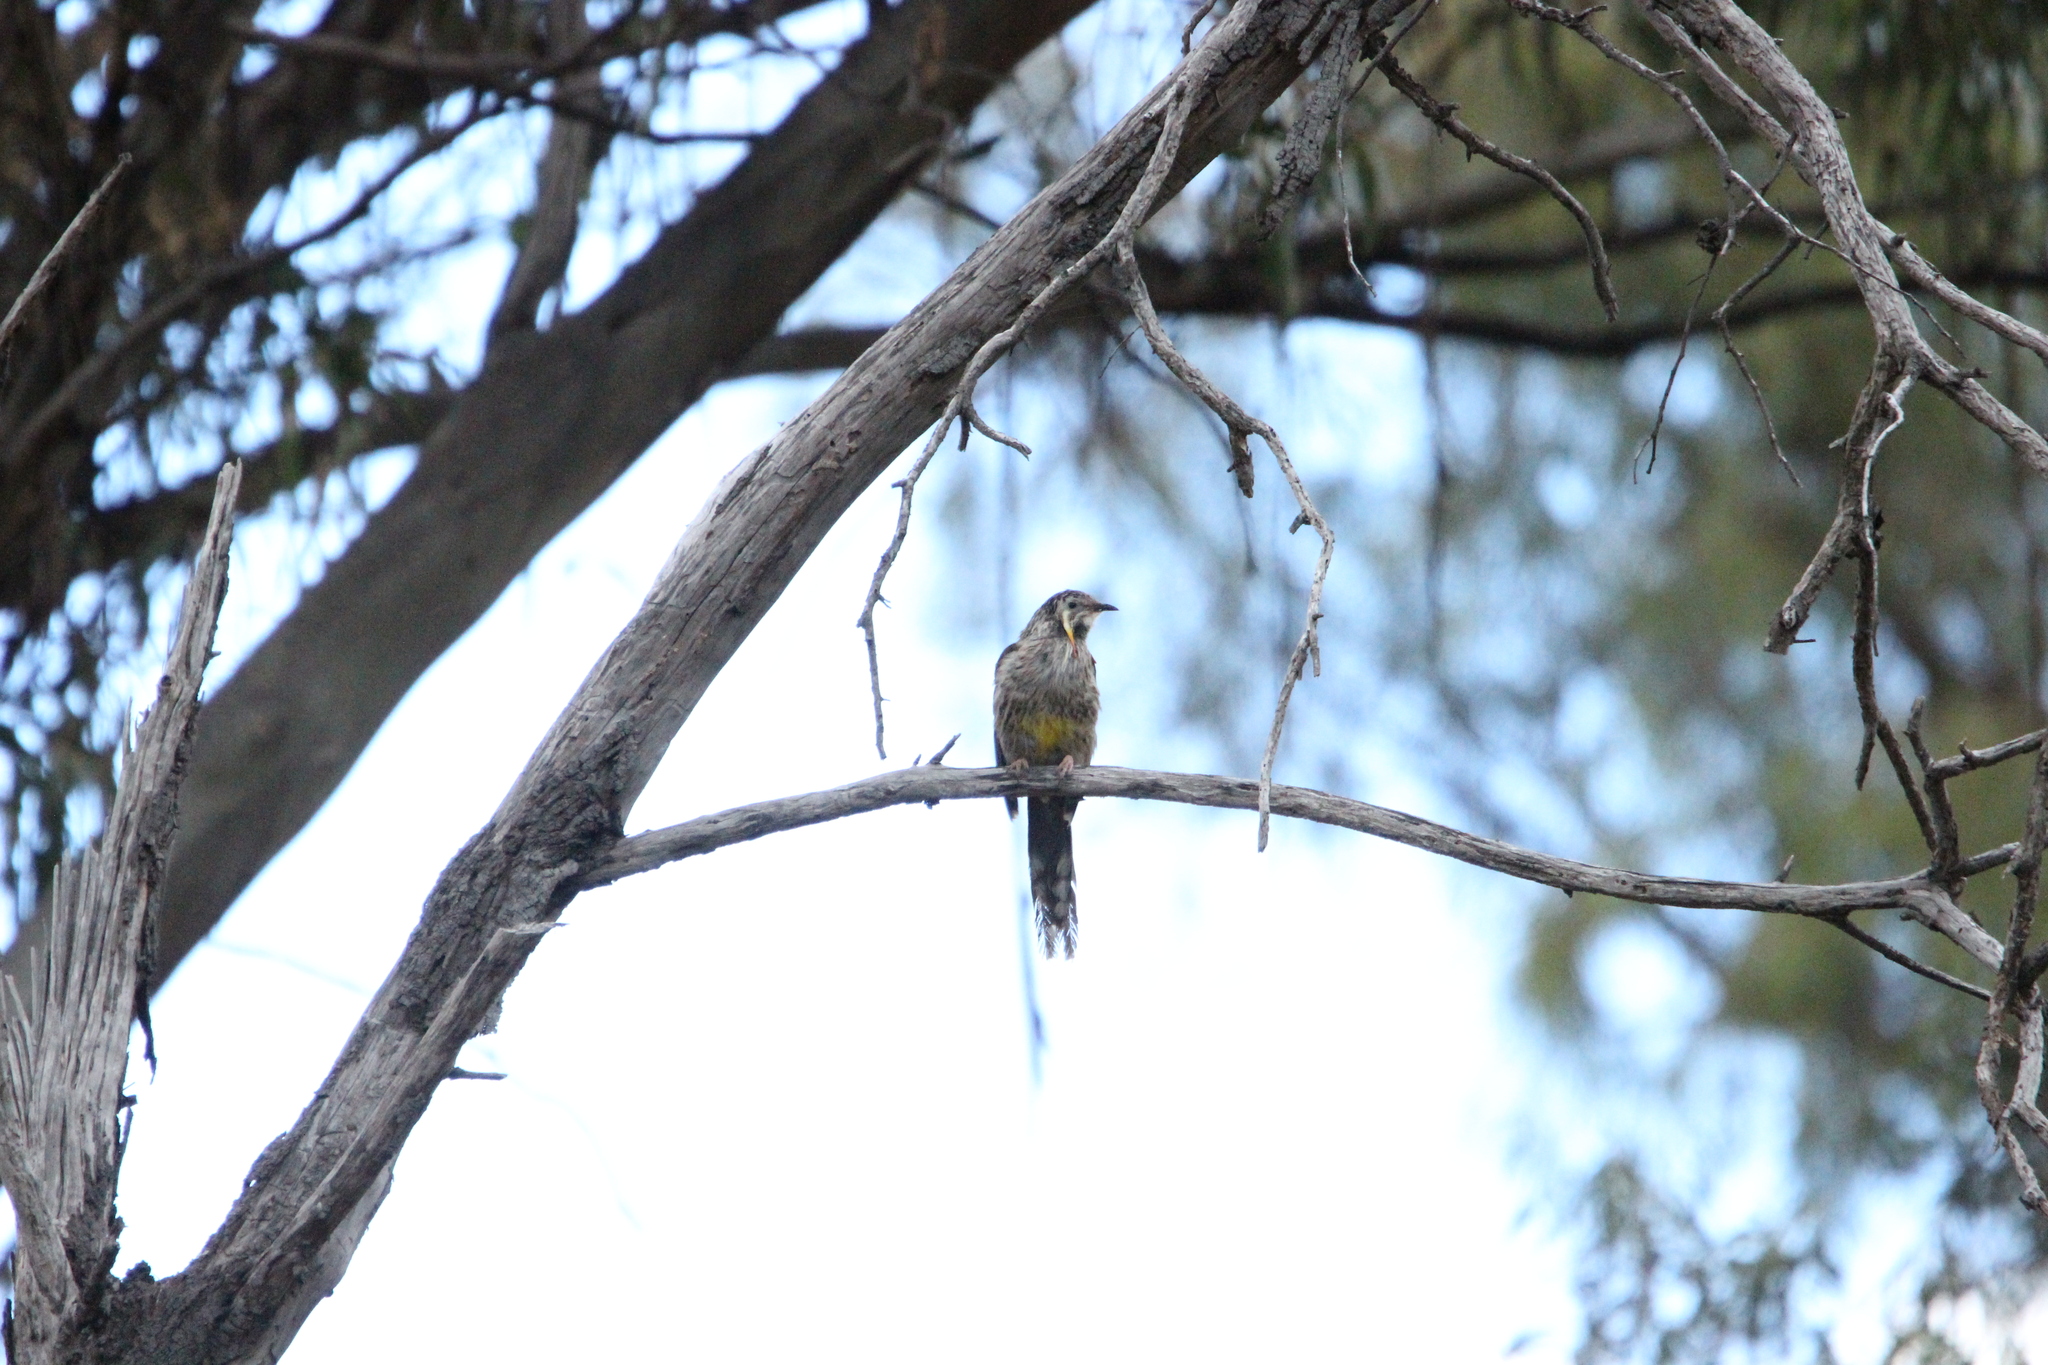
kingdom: Animalia
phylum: Chordata
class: Aves
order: Passeriformes
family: Meliphagidae
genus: Anthochaera
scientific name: Anthochaera paradoxa
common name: Yellow wattlebird
